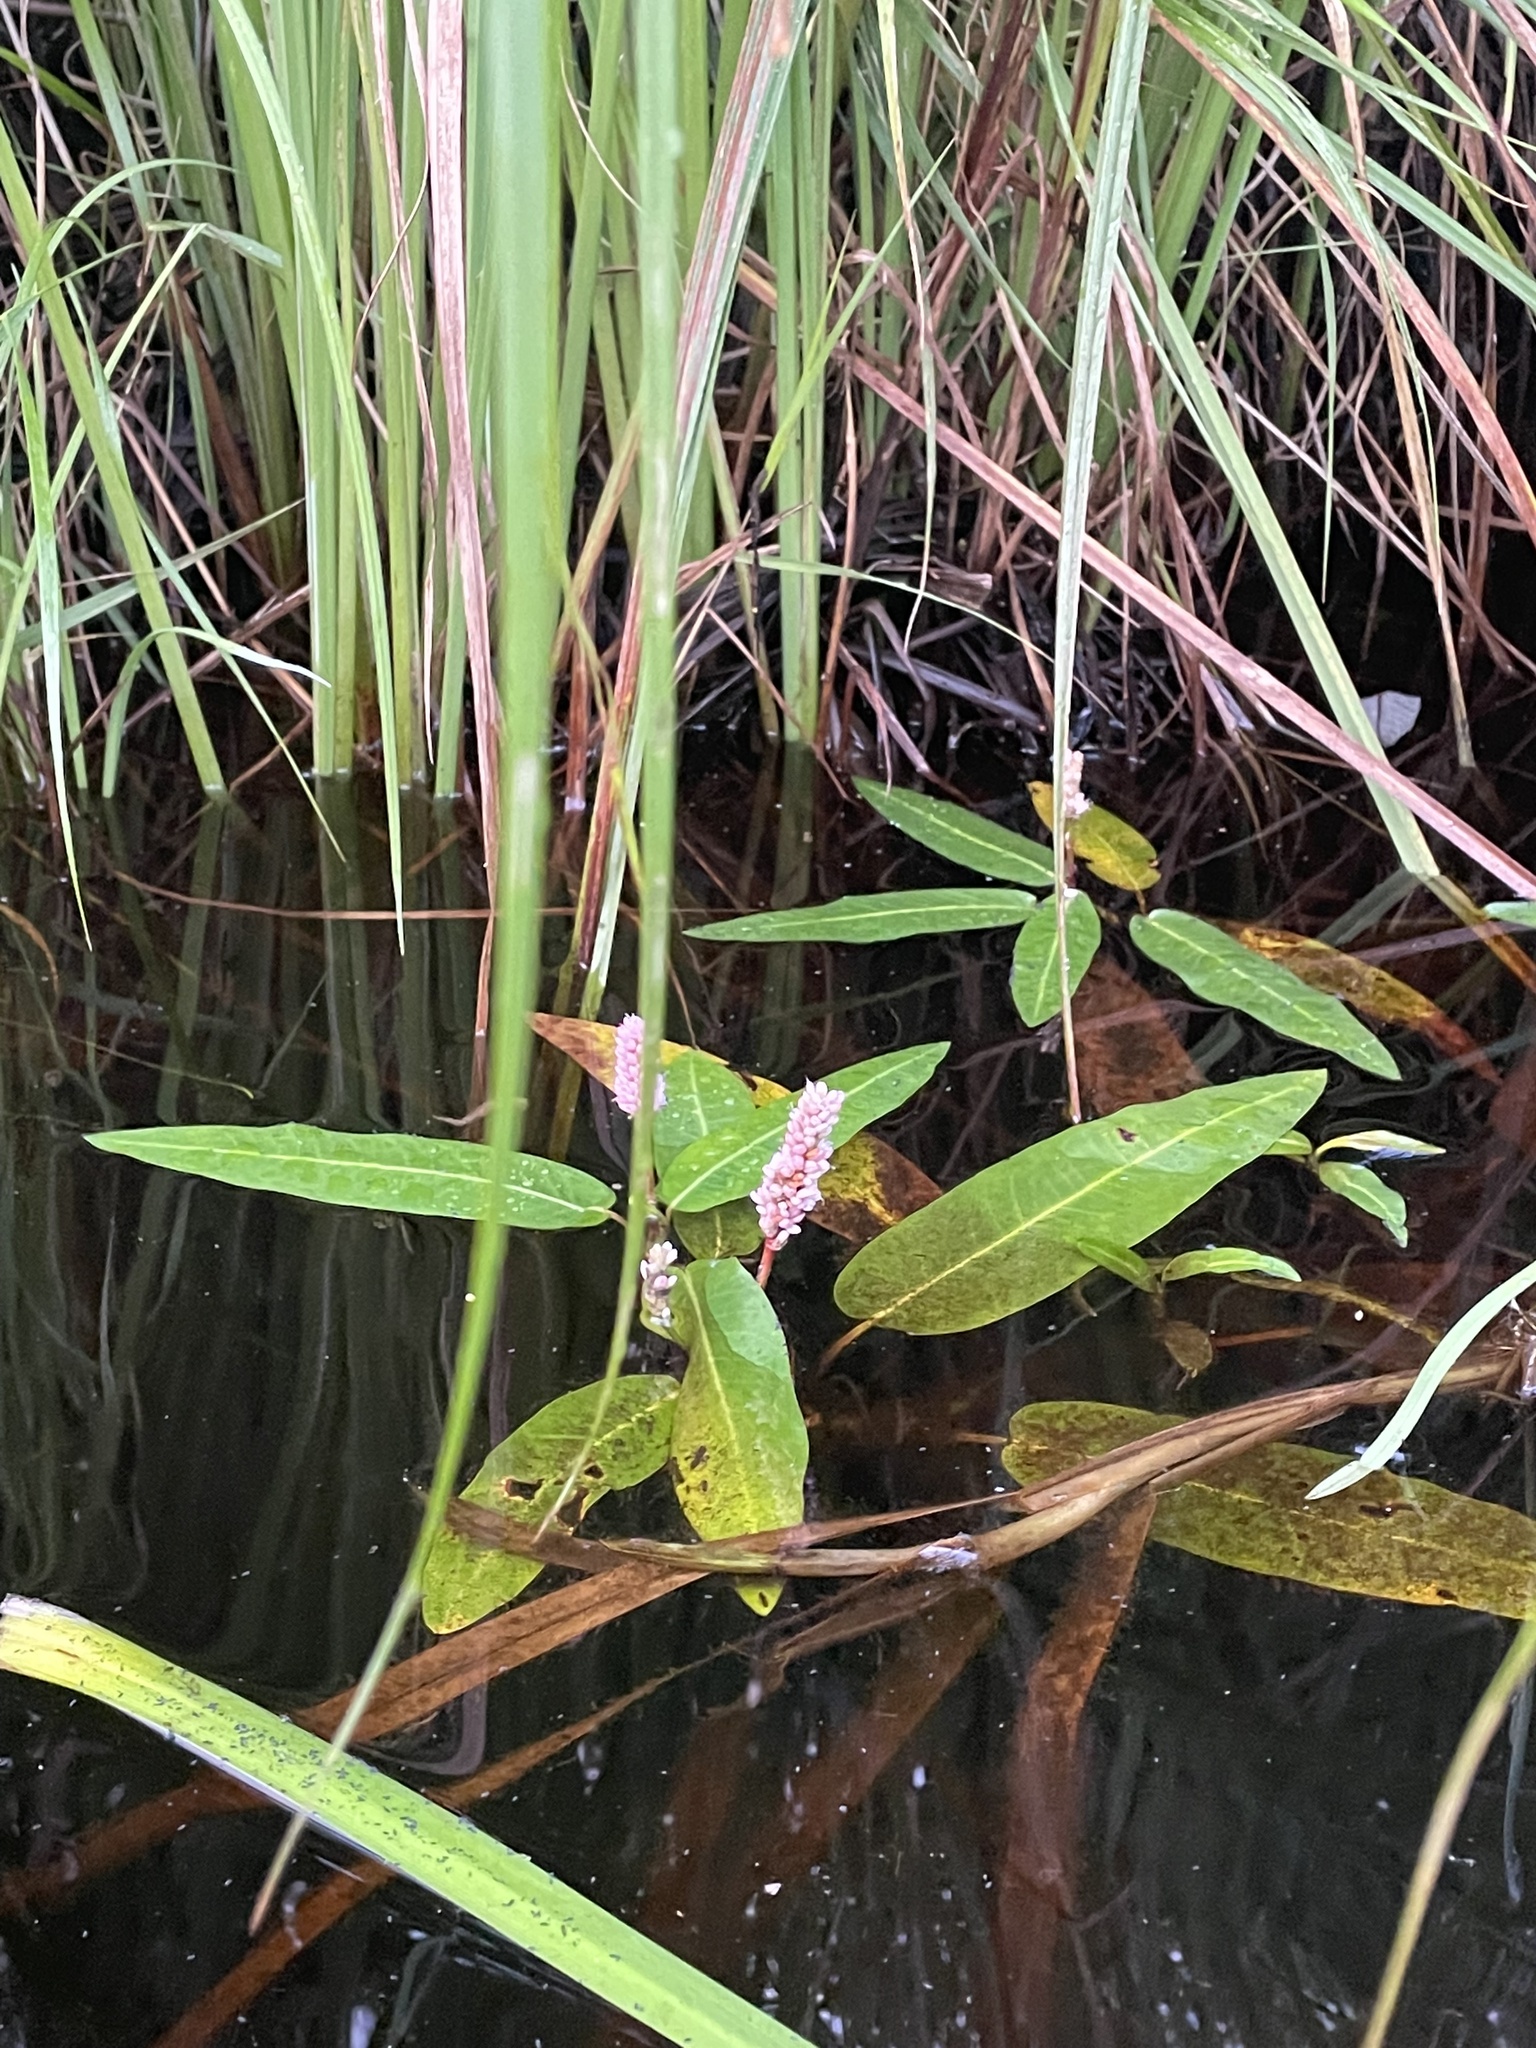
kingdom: Plantae
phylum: Tracheophyta
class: Magnoliopsida
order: Caryophyllales
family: Polygonaceae
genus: Persicaria
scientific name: Persicaria amphibia
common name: Amphibious bistort
